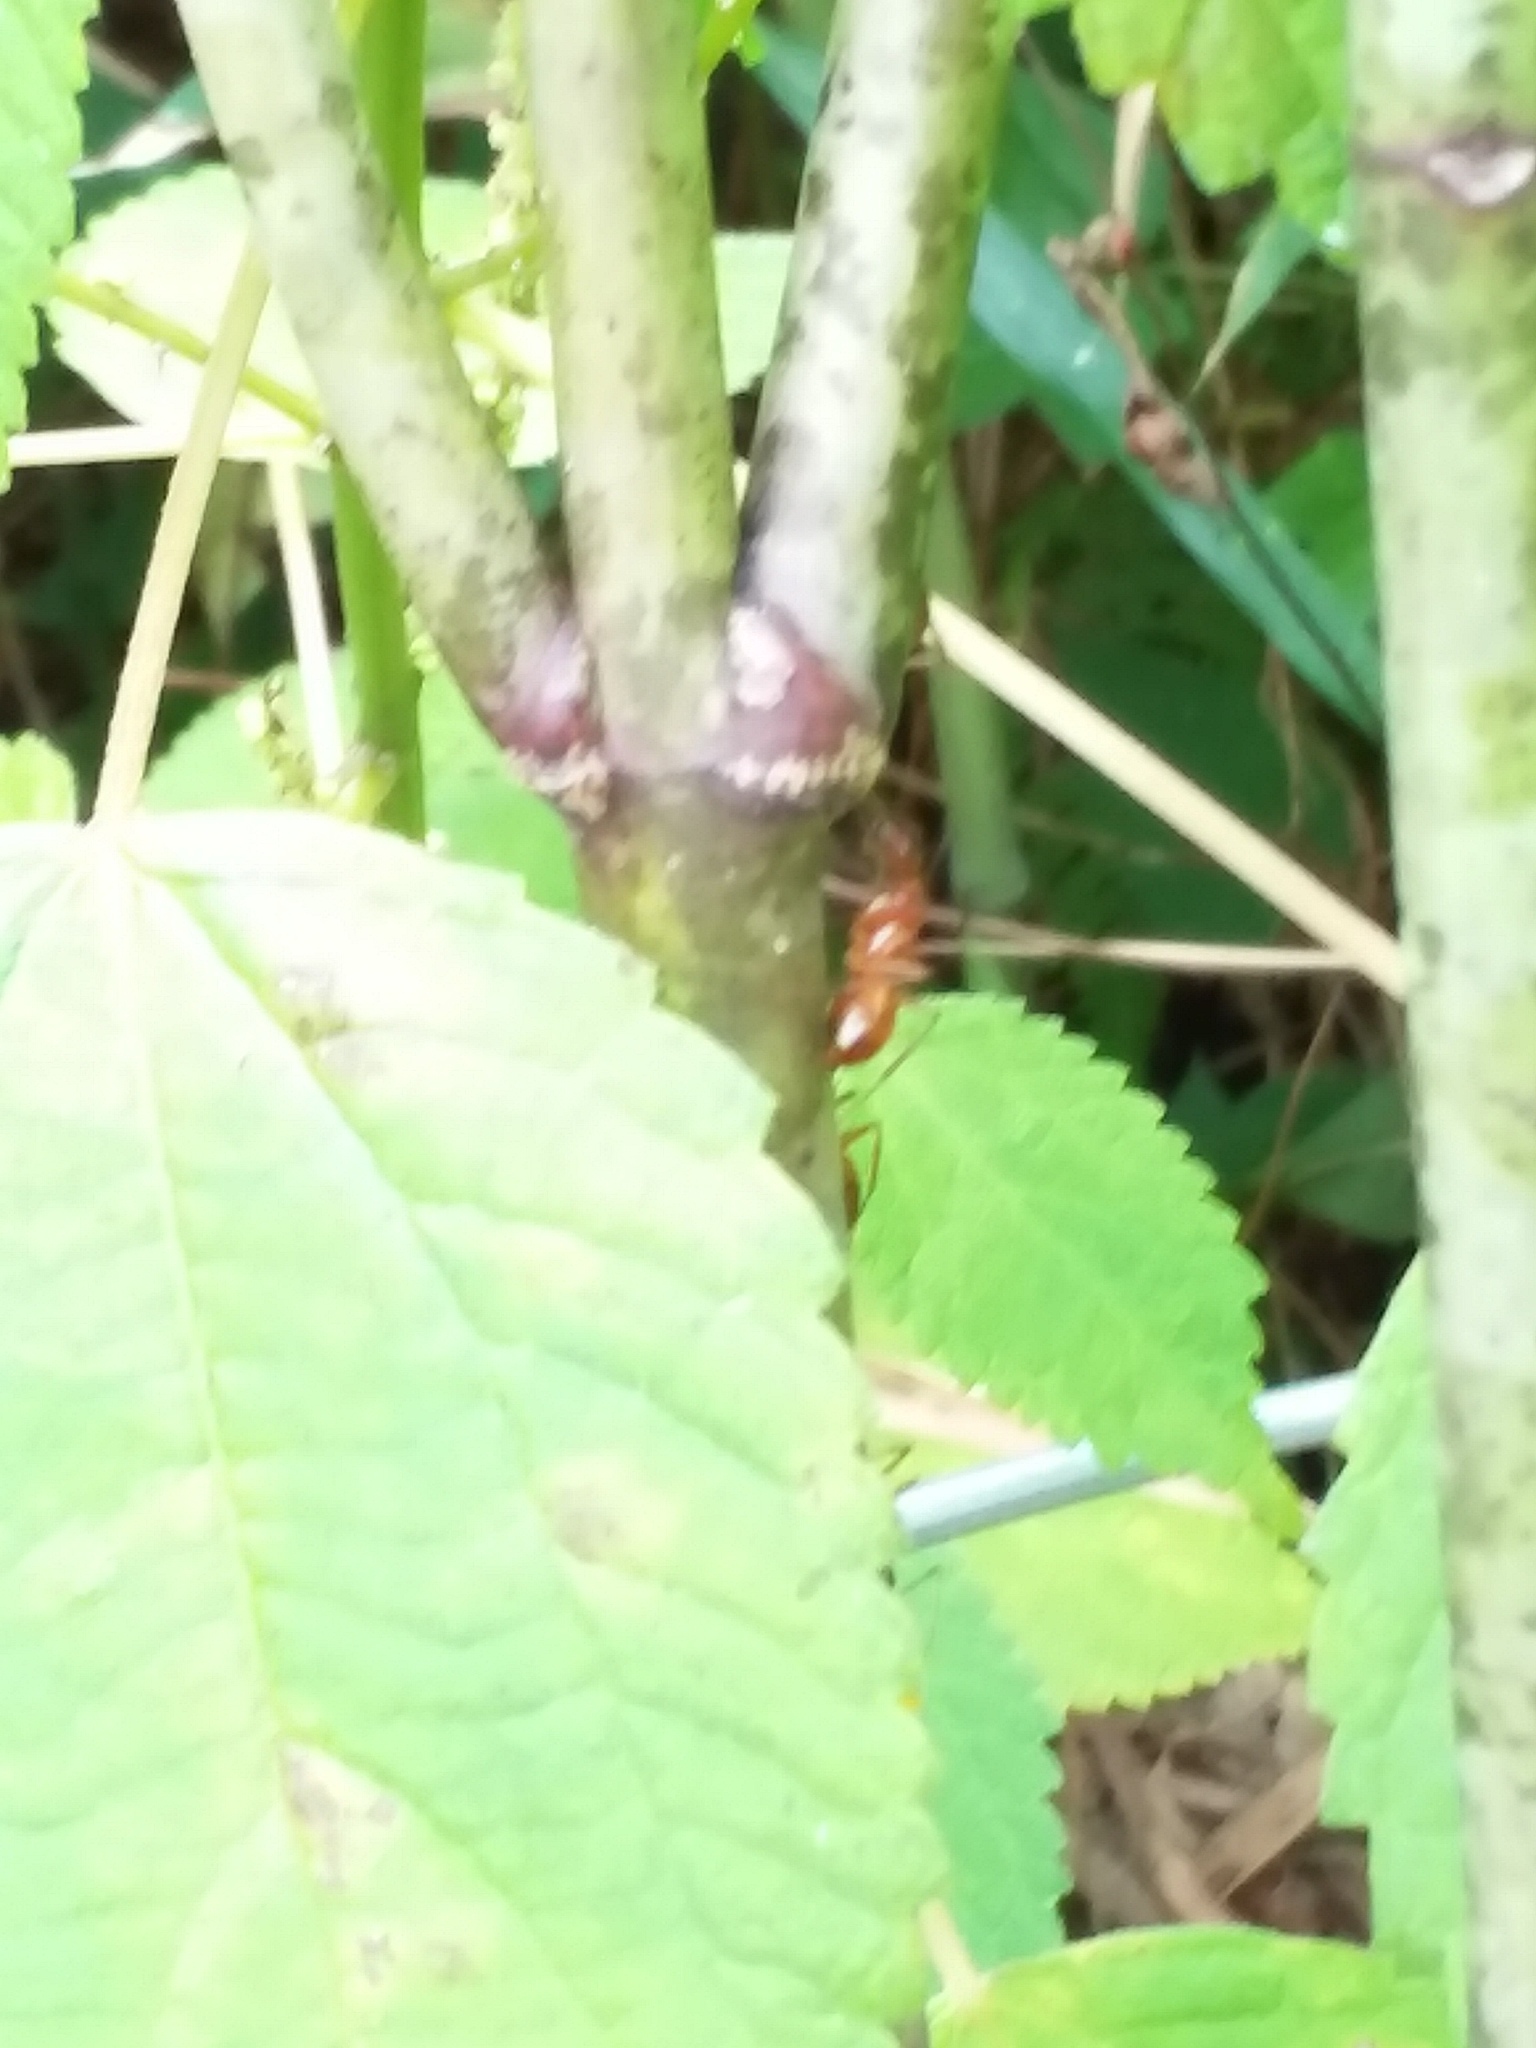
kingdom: Animalia
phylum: Arthropoda
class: Insecta
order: Hymenoptera
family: Formicidae
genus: Camponotus
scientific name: Camponotus castaneus
